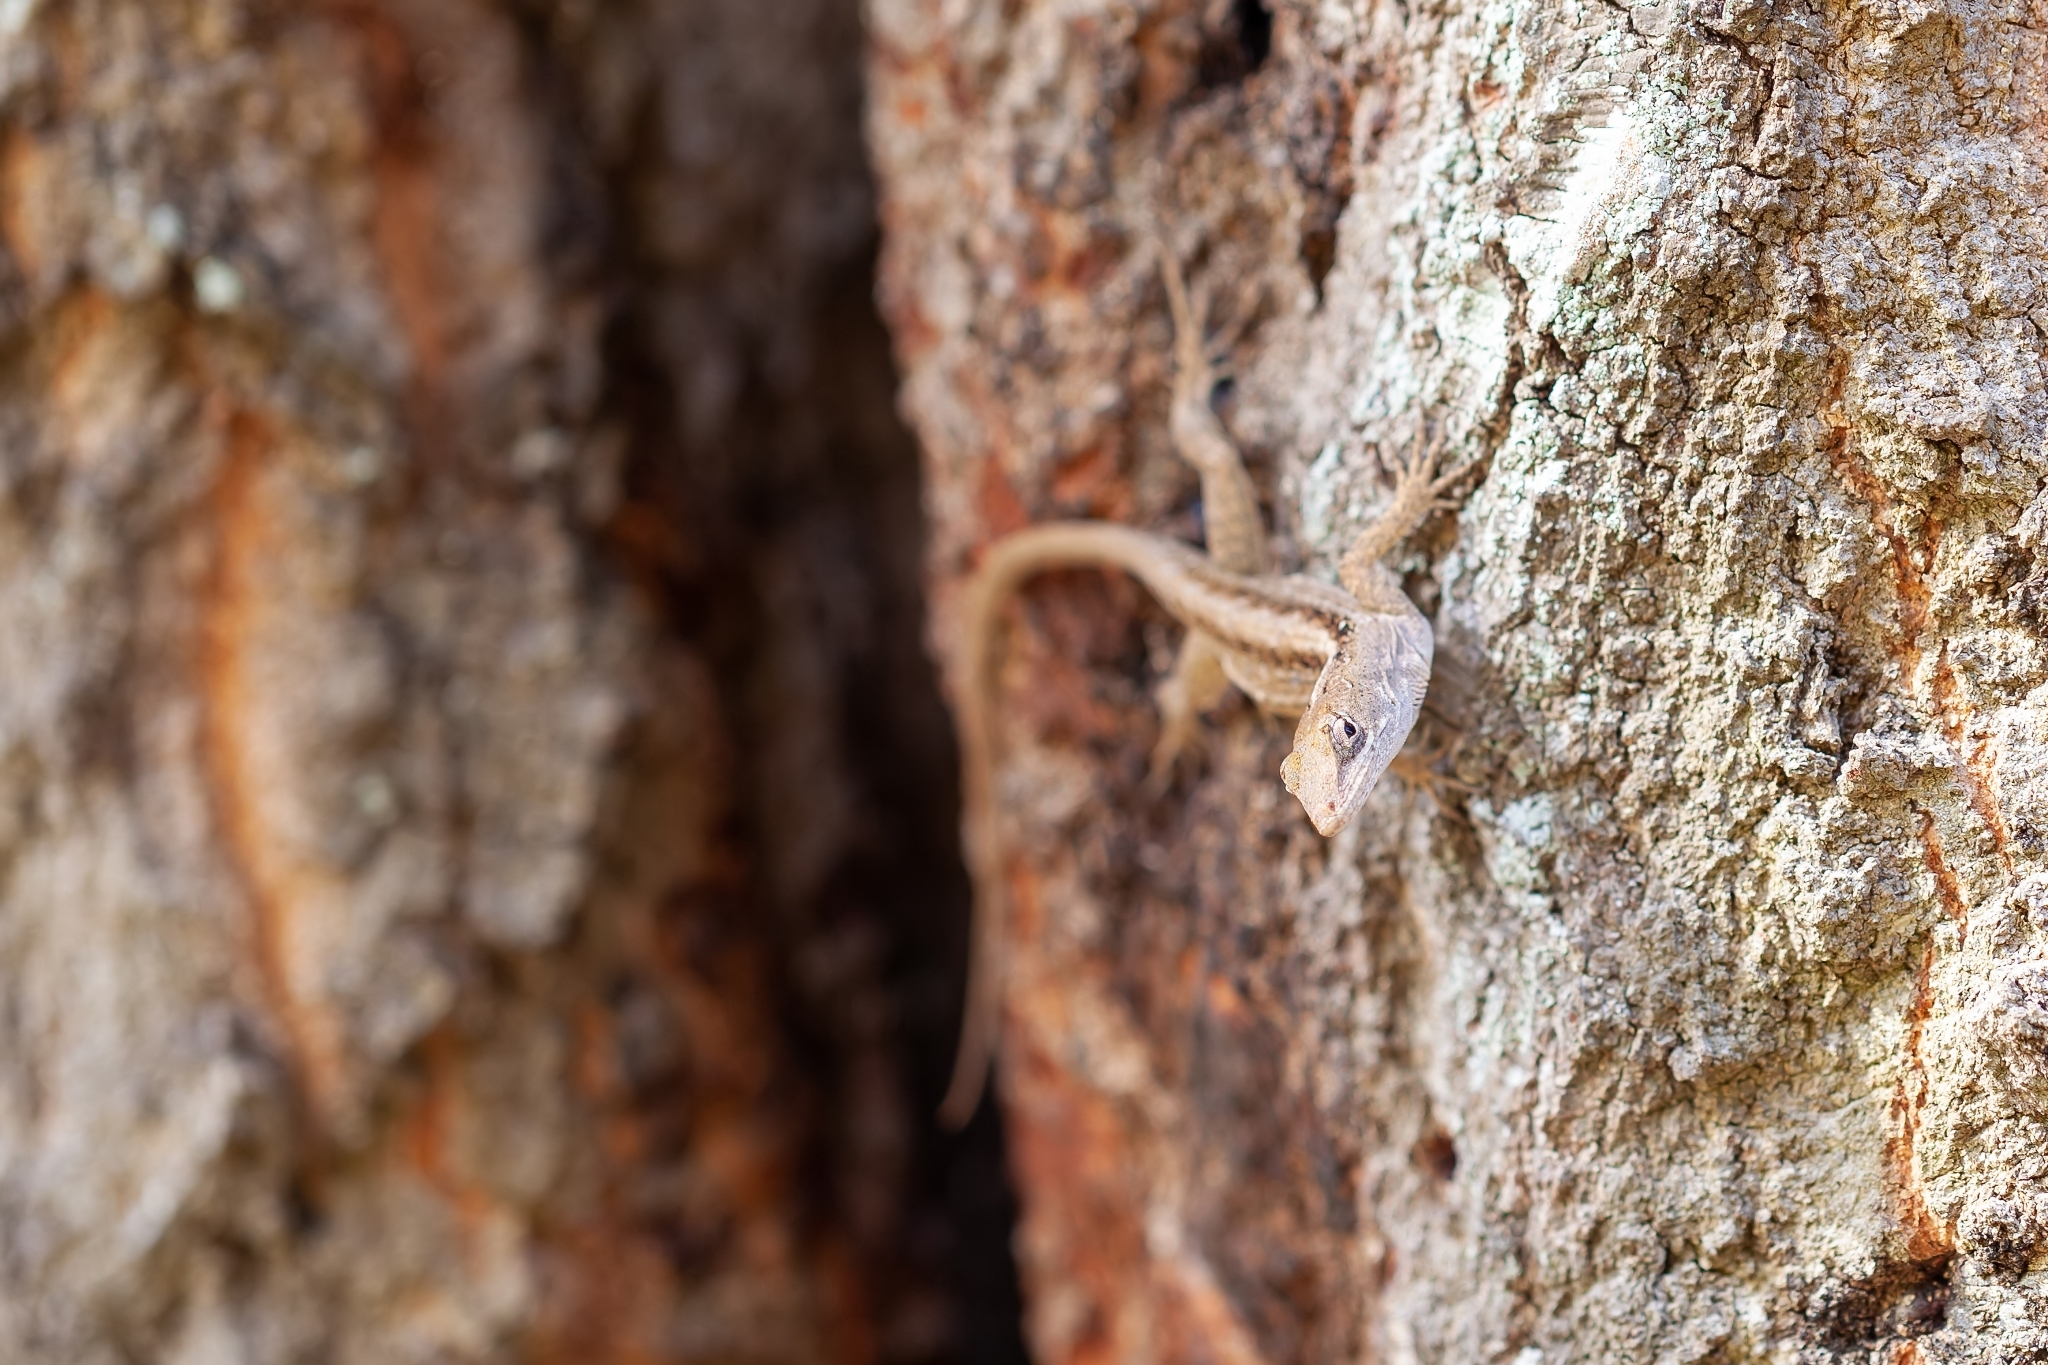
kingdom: Animalia
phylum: Chordata
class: Squamata
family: Dactyloidae
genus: Anolis
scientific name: Anolis sagrei
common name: Brown anole
